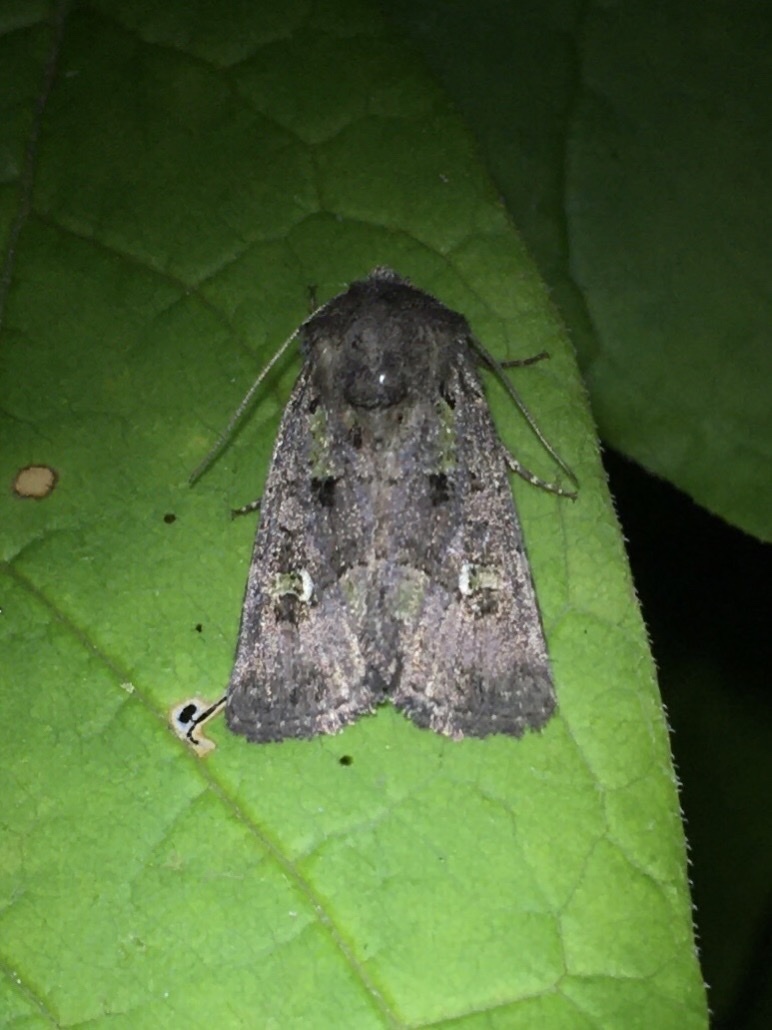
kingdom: Animalia
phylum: Arthropoda
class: Insecta
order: Lepidoptera
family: Noctuidae
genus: Lacinipolia
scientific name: Lacinipolia renigera
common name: Kidney-spotted minor
